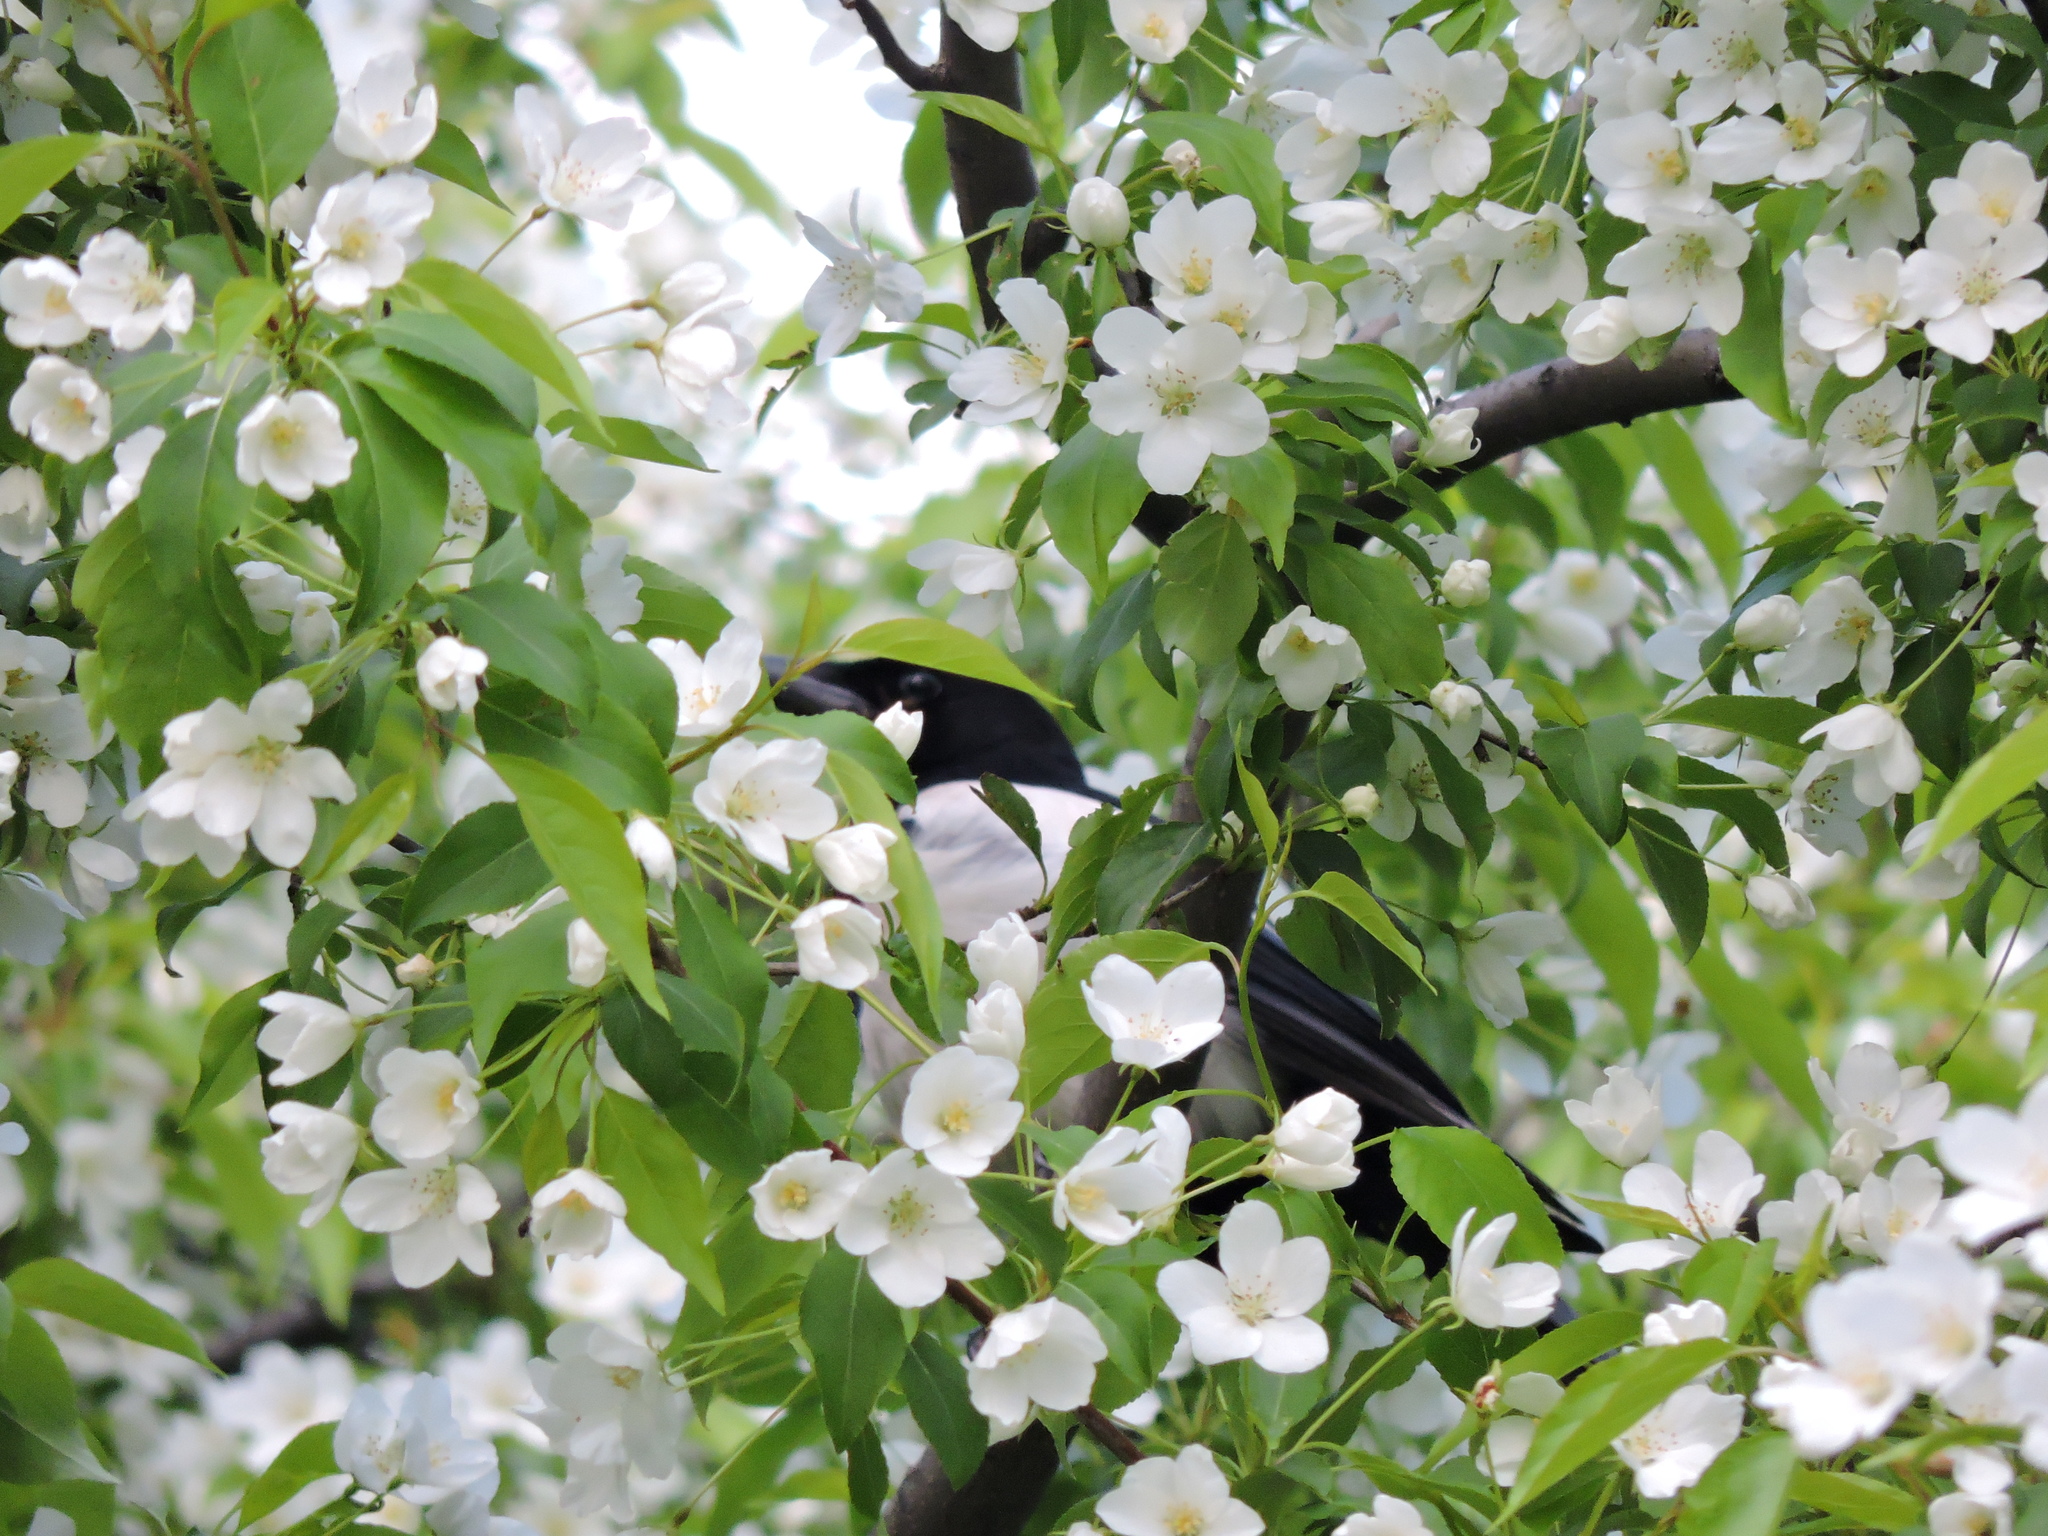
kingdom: Animalia
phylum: Chordata
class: Aves
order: Passeriformes
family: Corvidae
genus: Pica
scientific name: Pica pica
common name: Eurasian magpie
